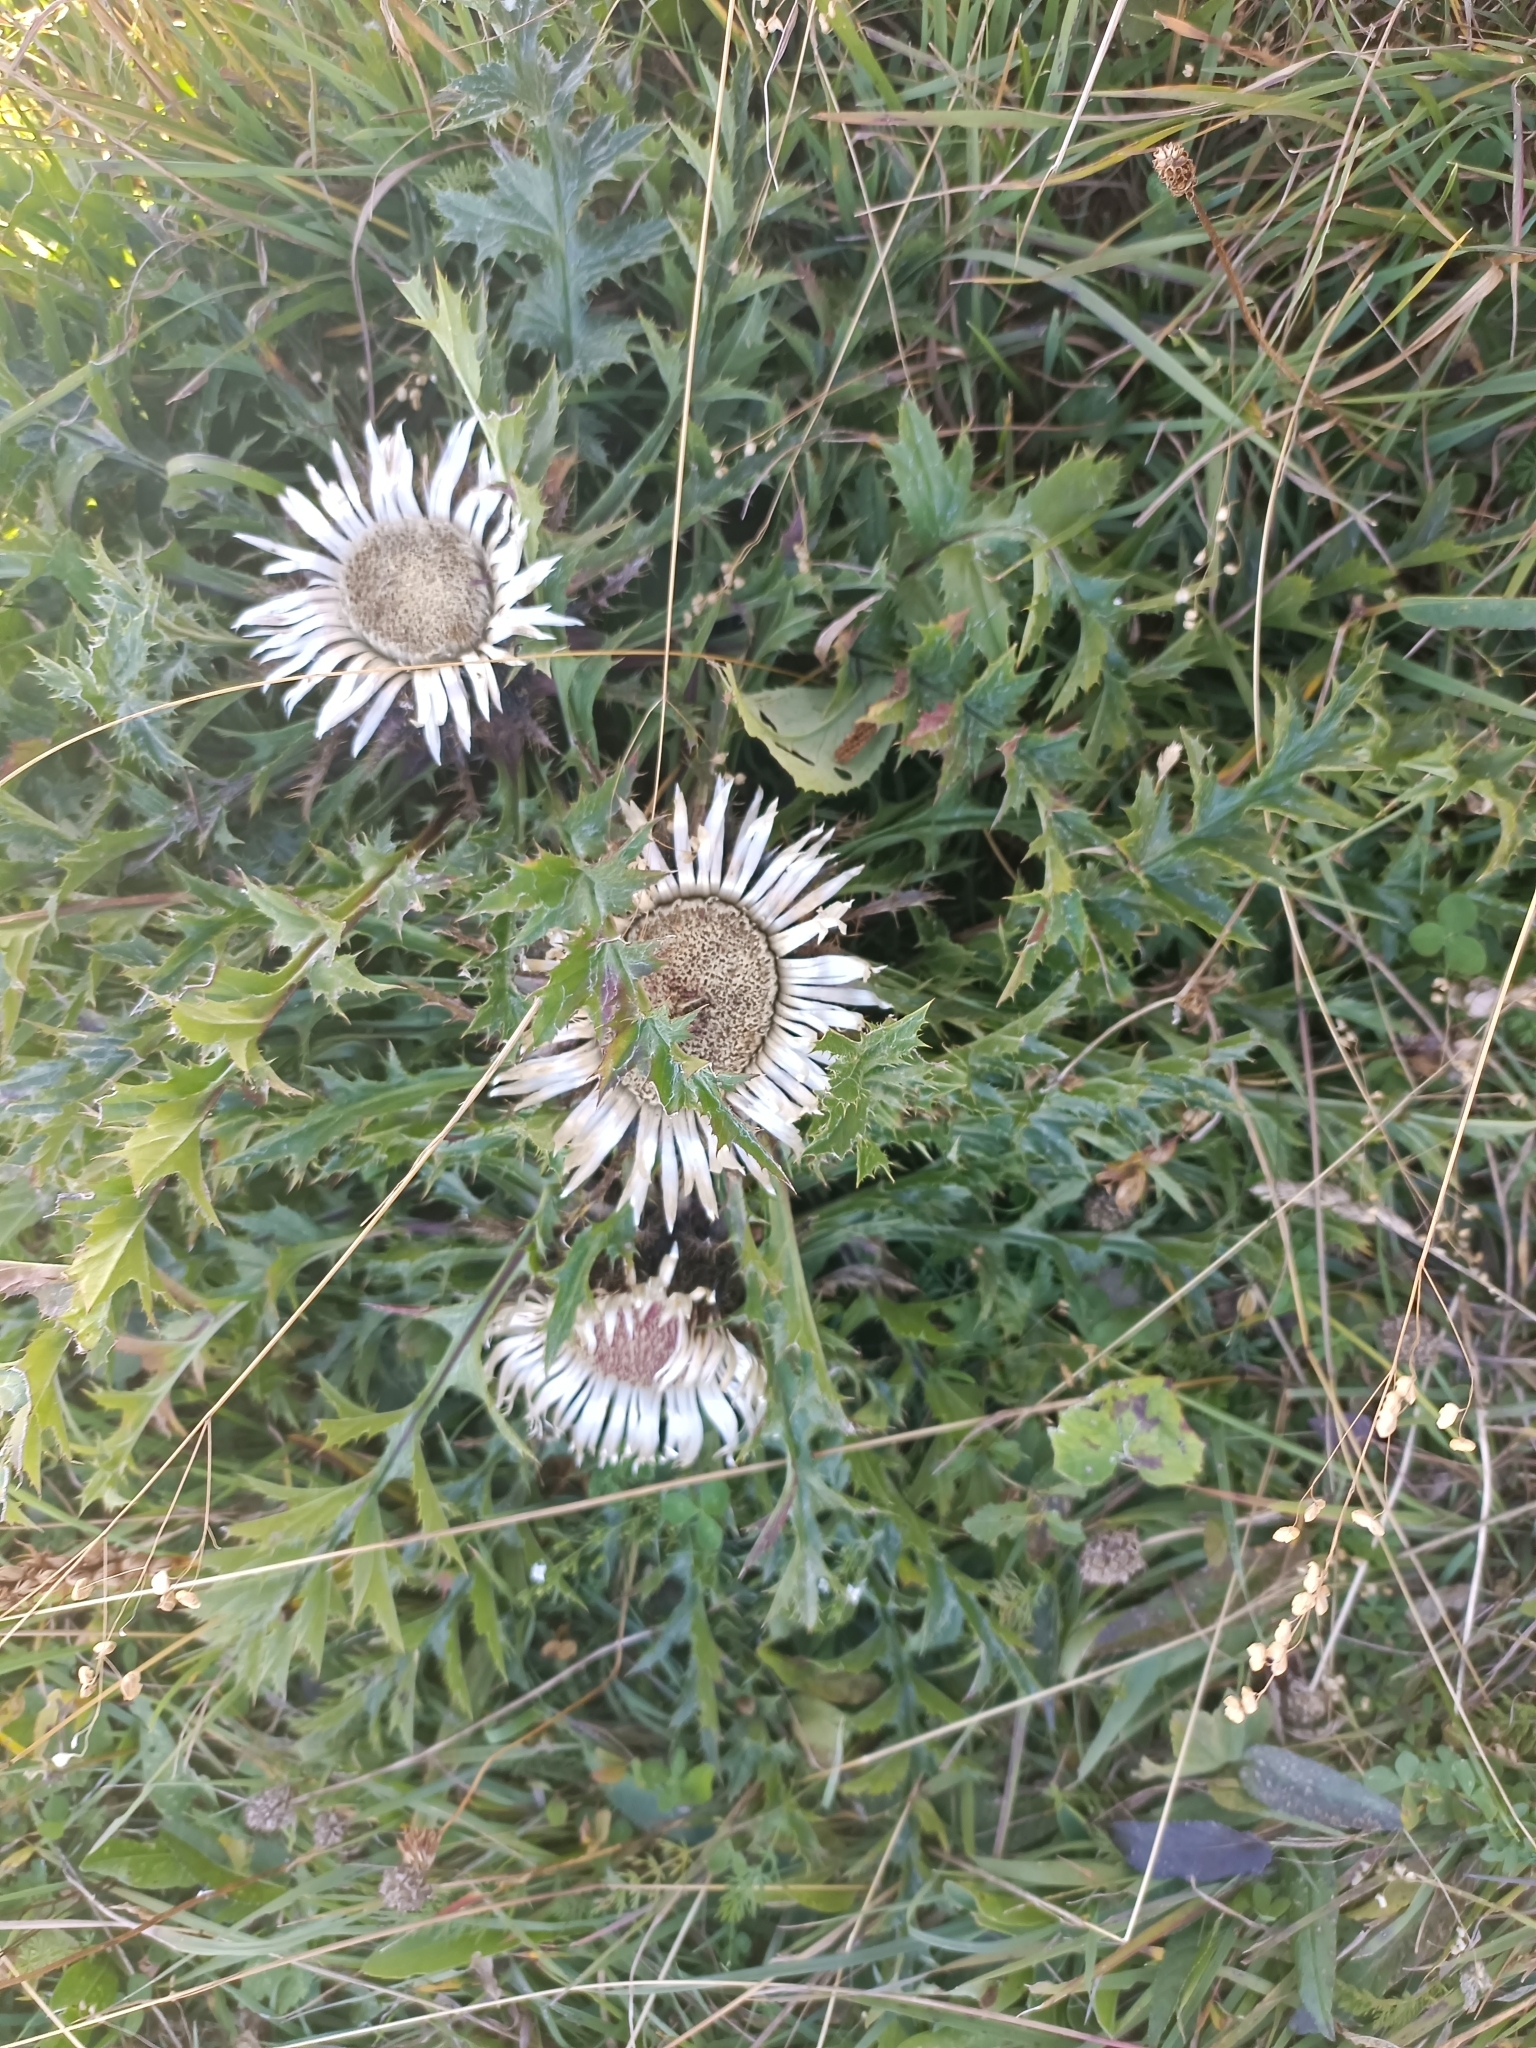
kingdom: Plantae
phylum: Tracheophyta
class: Magnoliopsida
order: Asterales
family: Asteraceae
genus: Carlina
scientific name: Carlina acaulis
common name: Stemless carline thistle
